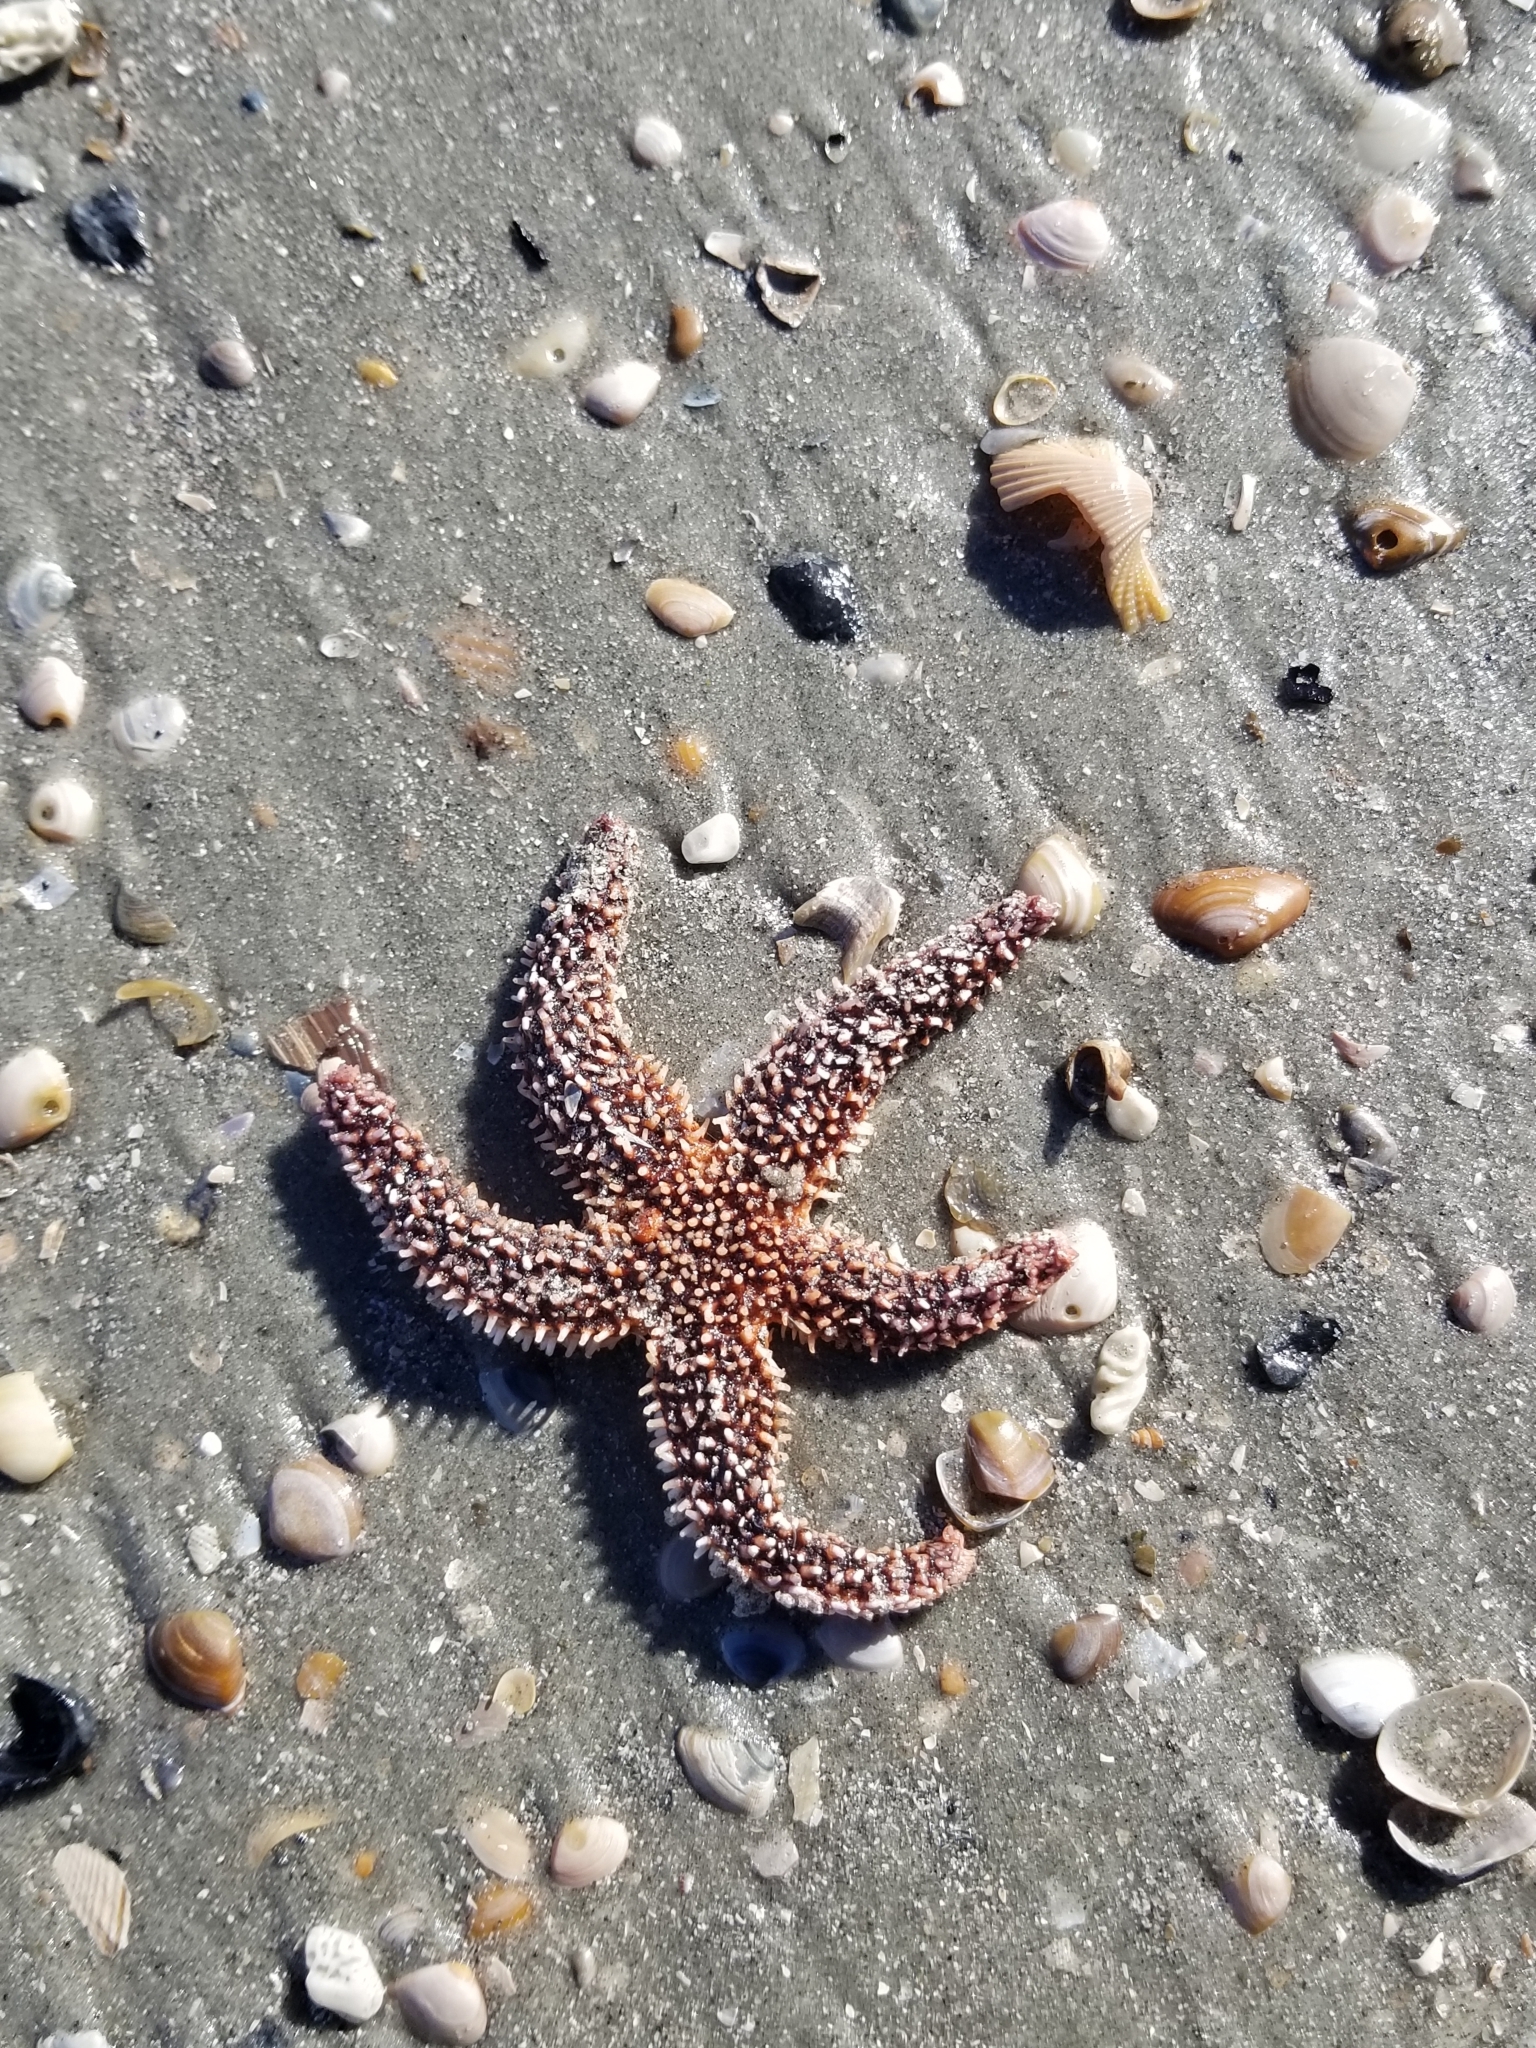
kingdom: Animalia
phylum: Echinodermata
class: Asteroidea
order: Forcipulatida
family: Asteriidae
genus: Asterias
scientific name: Asterias forbesi
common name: Forbes's sea star
